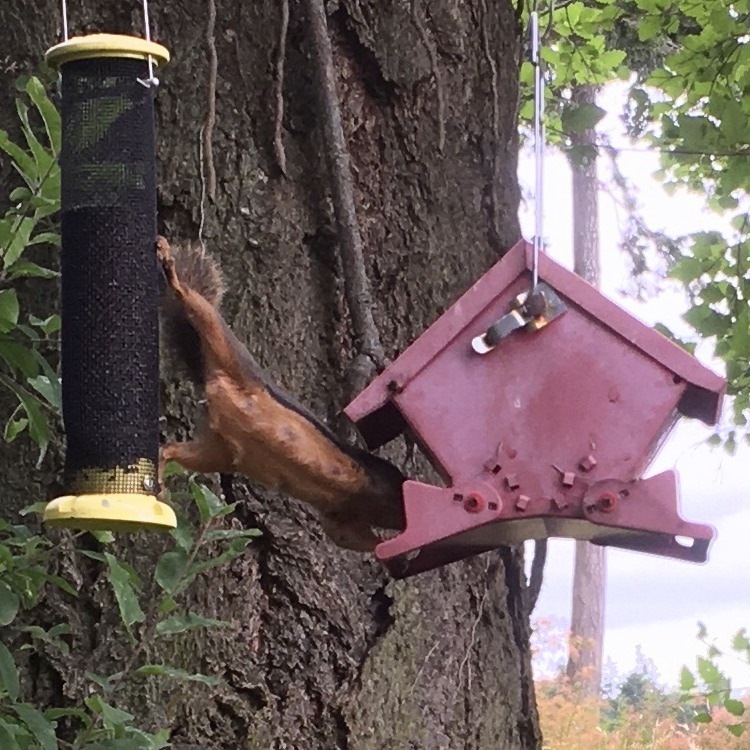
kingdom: Animalia
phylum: Chordata
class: Mammalia
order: Rodentia
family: Sciuridae
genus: Tamiasciurus
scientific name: Tamiasciurus douglasii
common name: Douglas's squirrel
